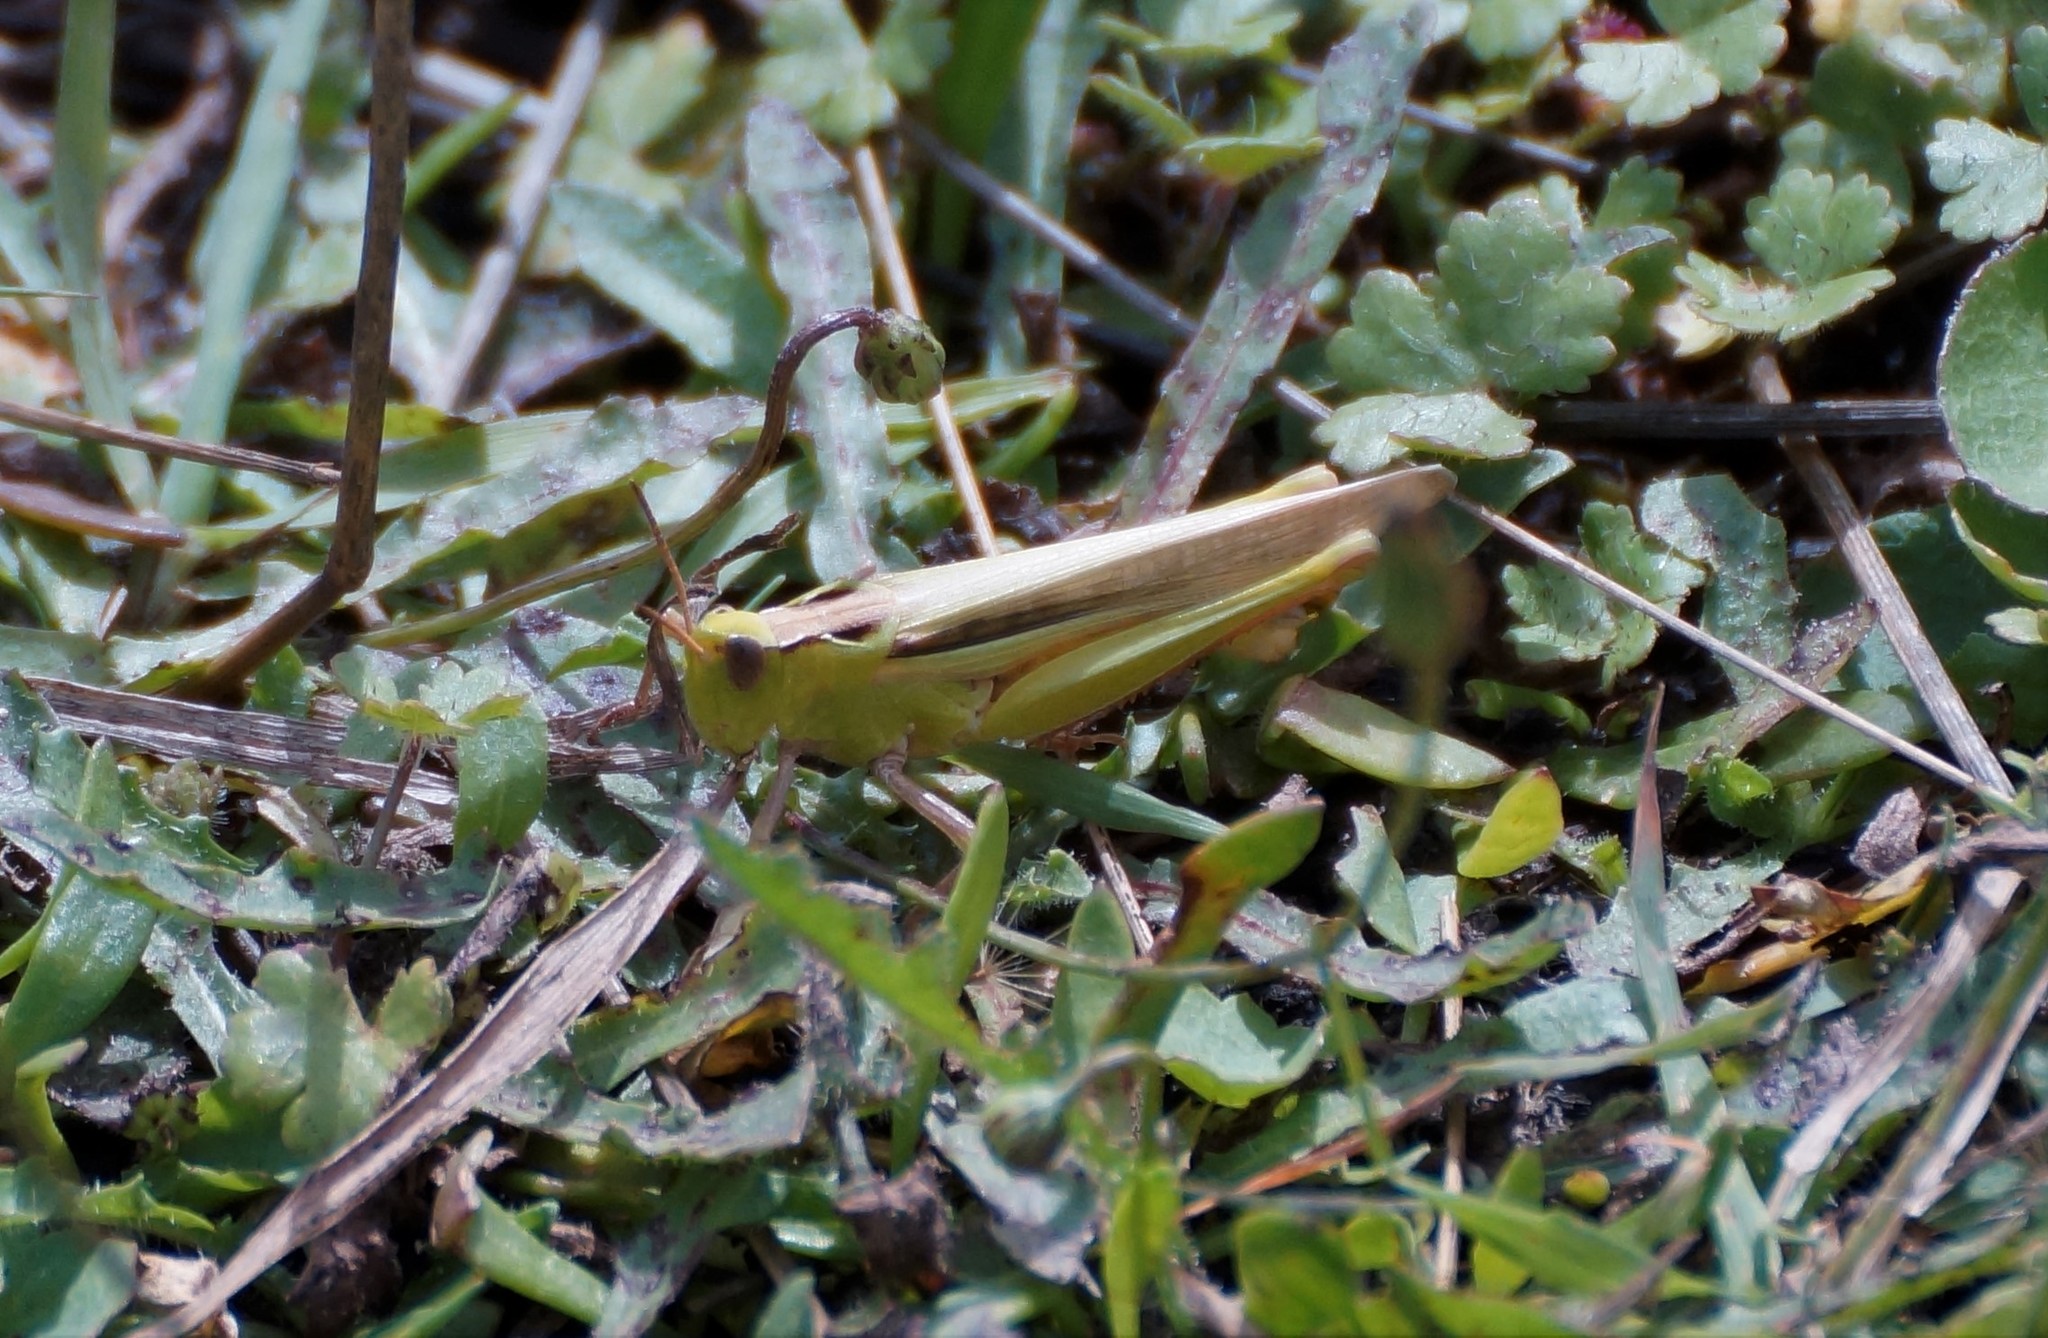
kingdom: Animalia
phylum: Arthropoda
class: Insecta
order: Orthoptera
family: Acrididae
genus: Schizobothrus
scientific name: Schizobothrus flavovittatus
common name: Disappearing grasshopper
